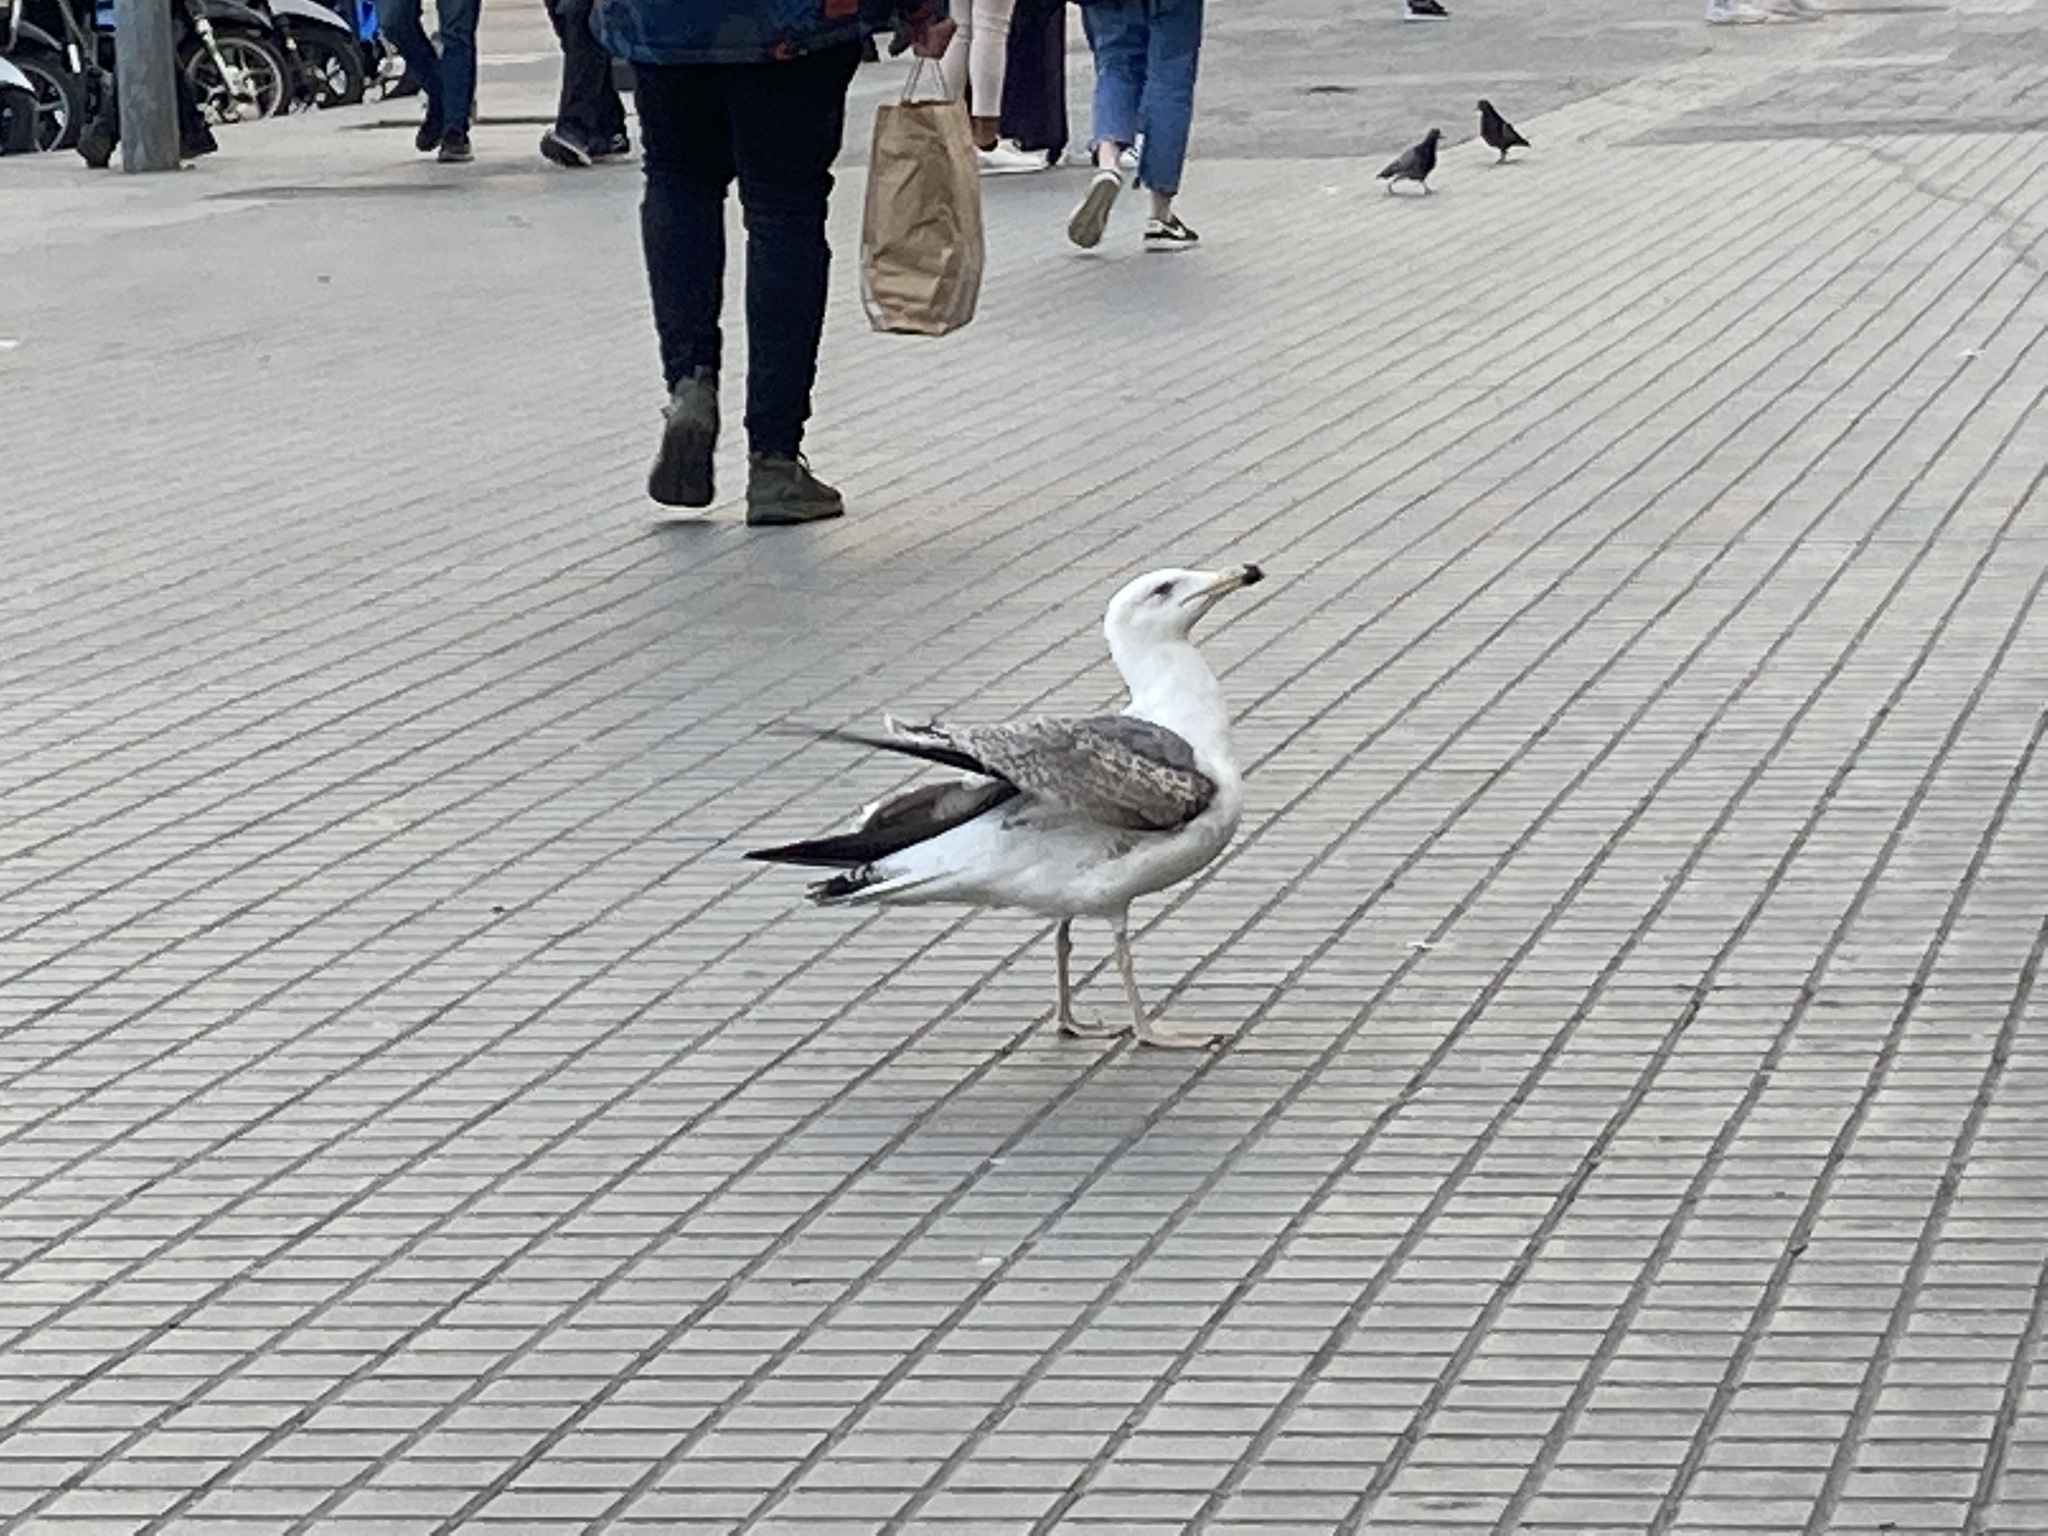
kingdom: Animalia
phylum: Chordata
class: Aves
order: Charadriiformes
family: Laridae
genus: Larus
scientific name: Larus michahellis
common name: Yellow-legged gull
